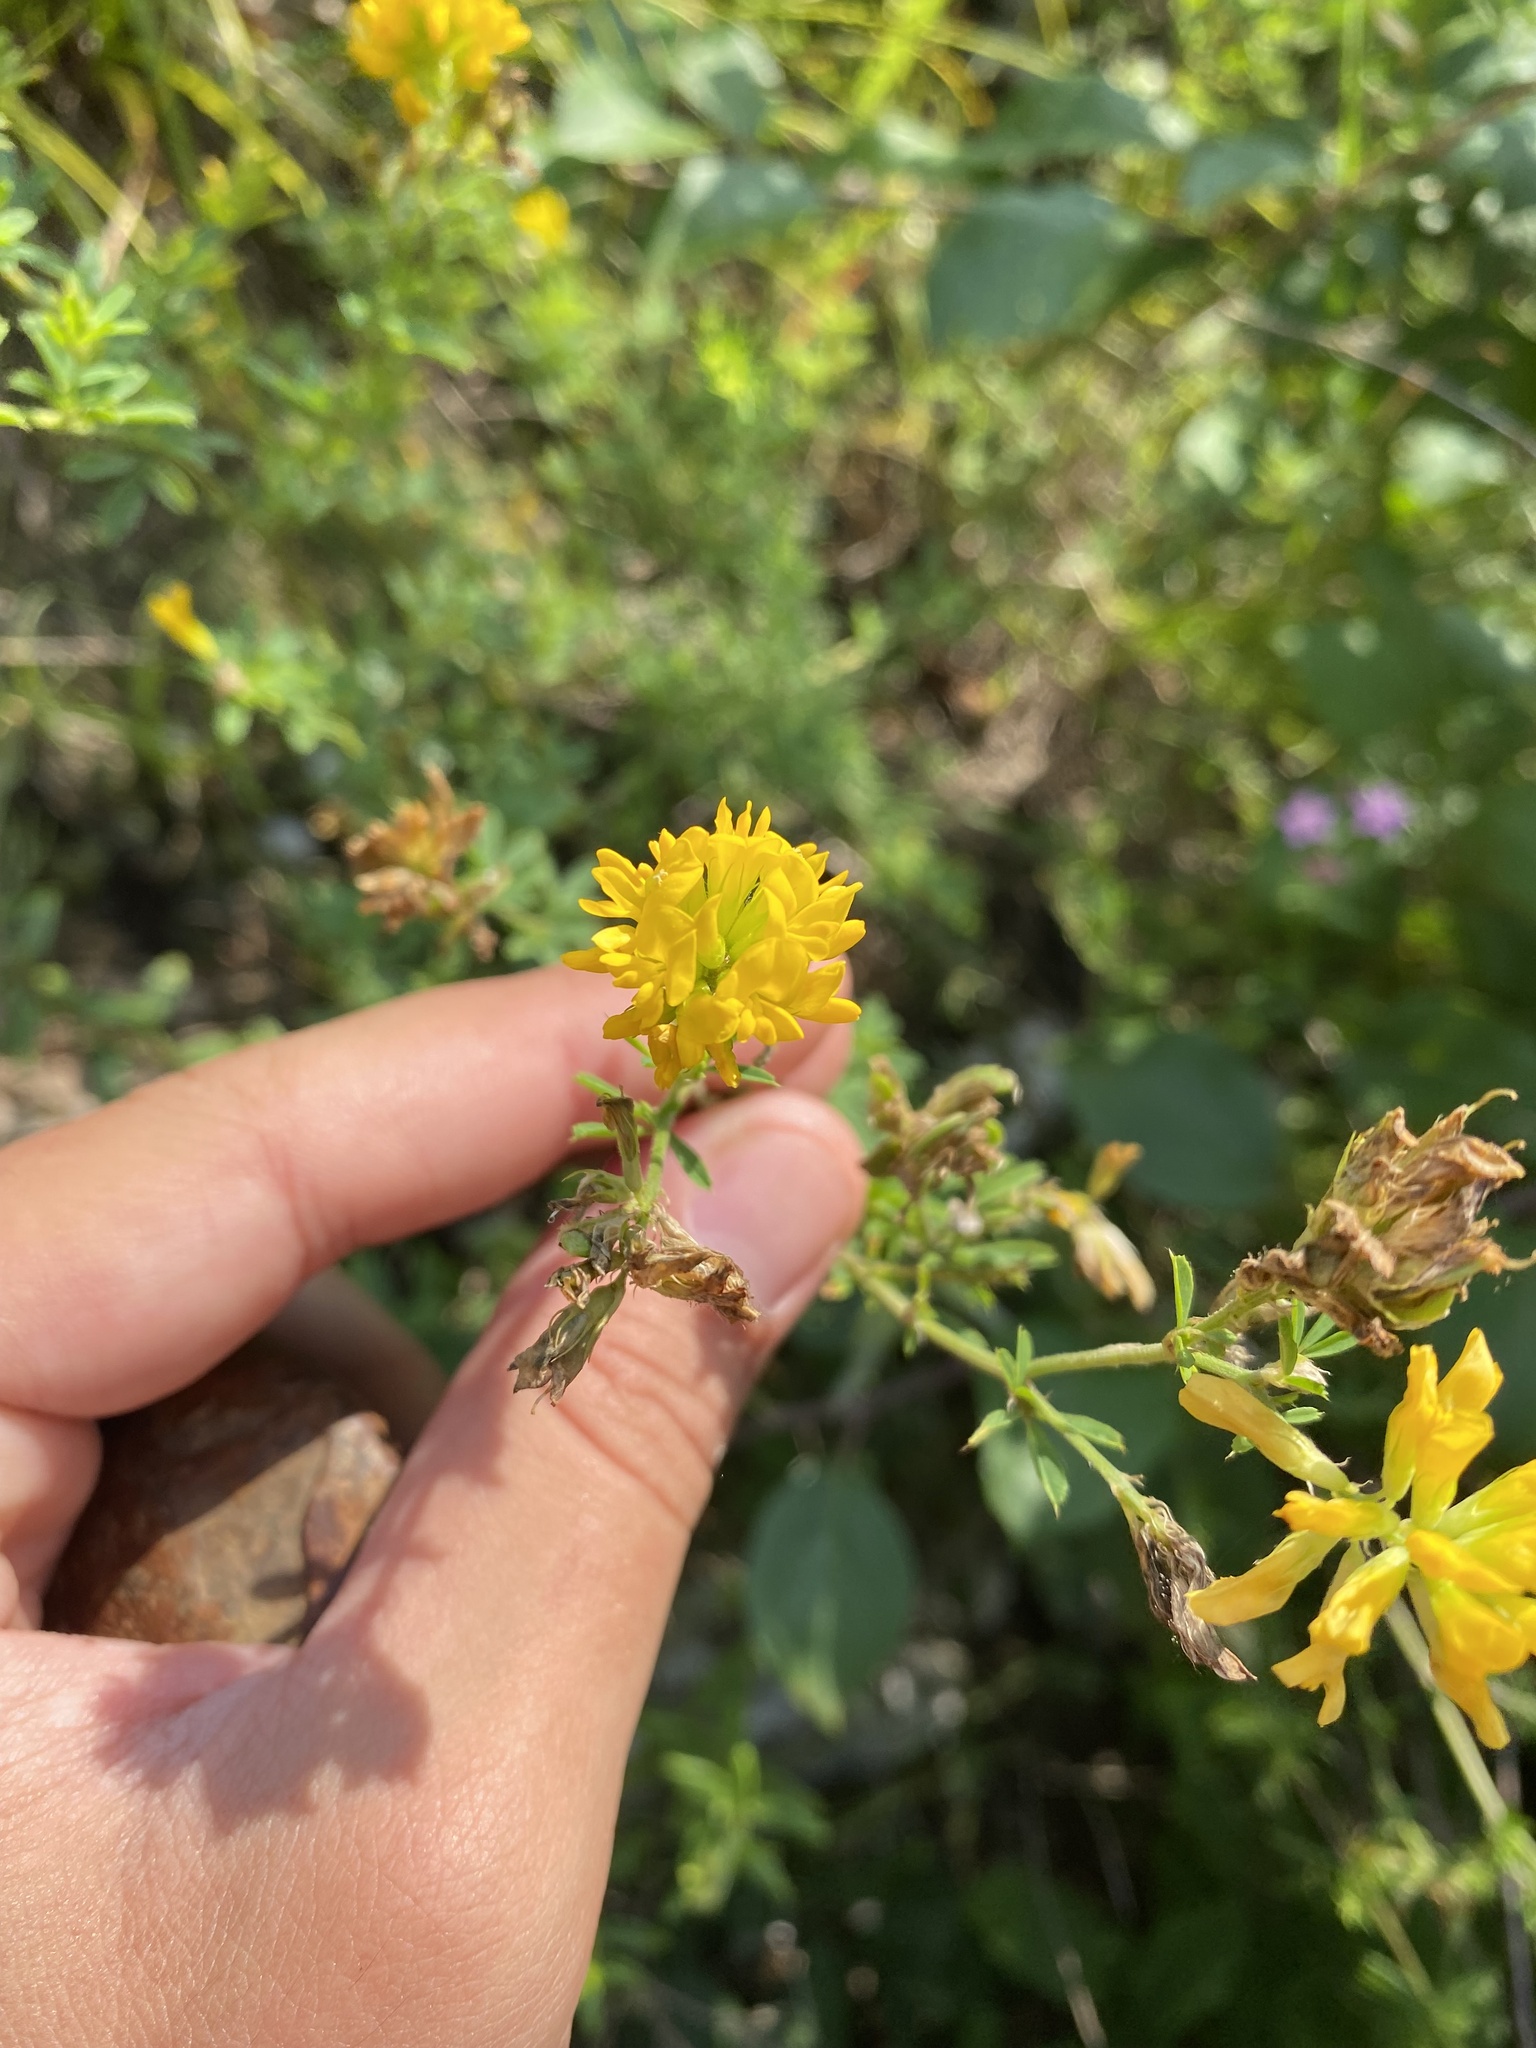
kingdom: Plantae
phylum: Tracheophyta
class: Magnoliopsida
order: Fabales
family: Fabaceae
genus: Medicago
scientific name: Medicago falcata
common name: Sickle medick
